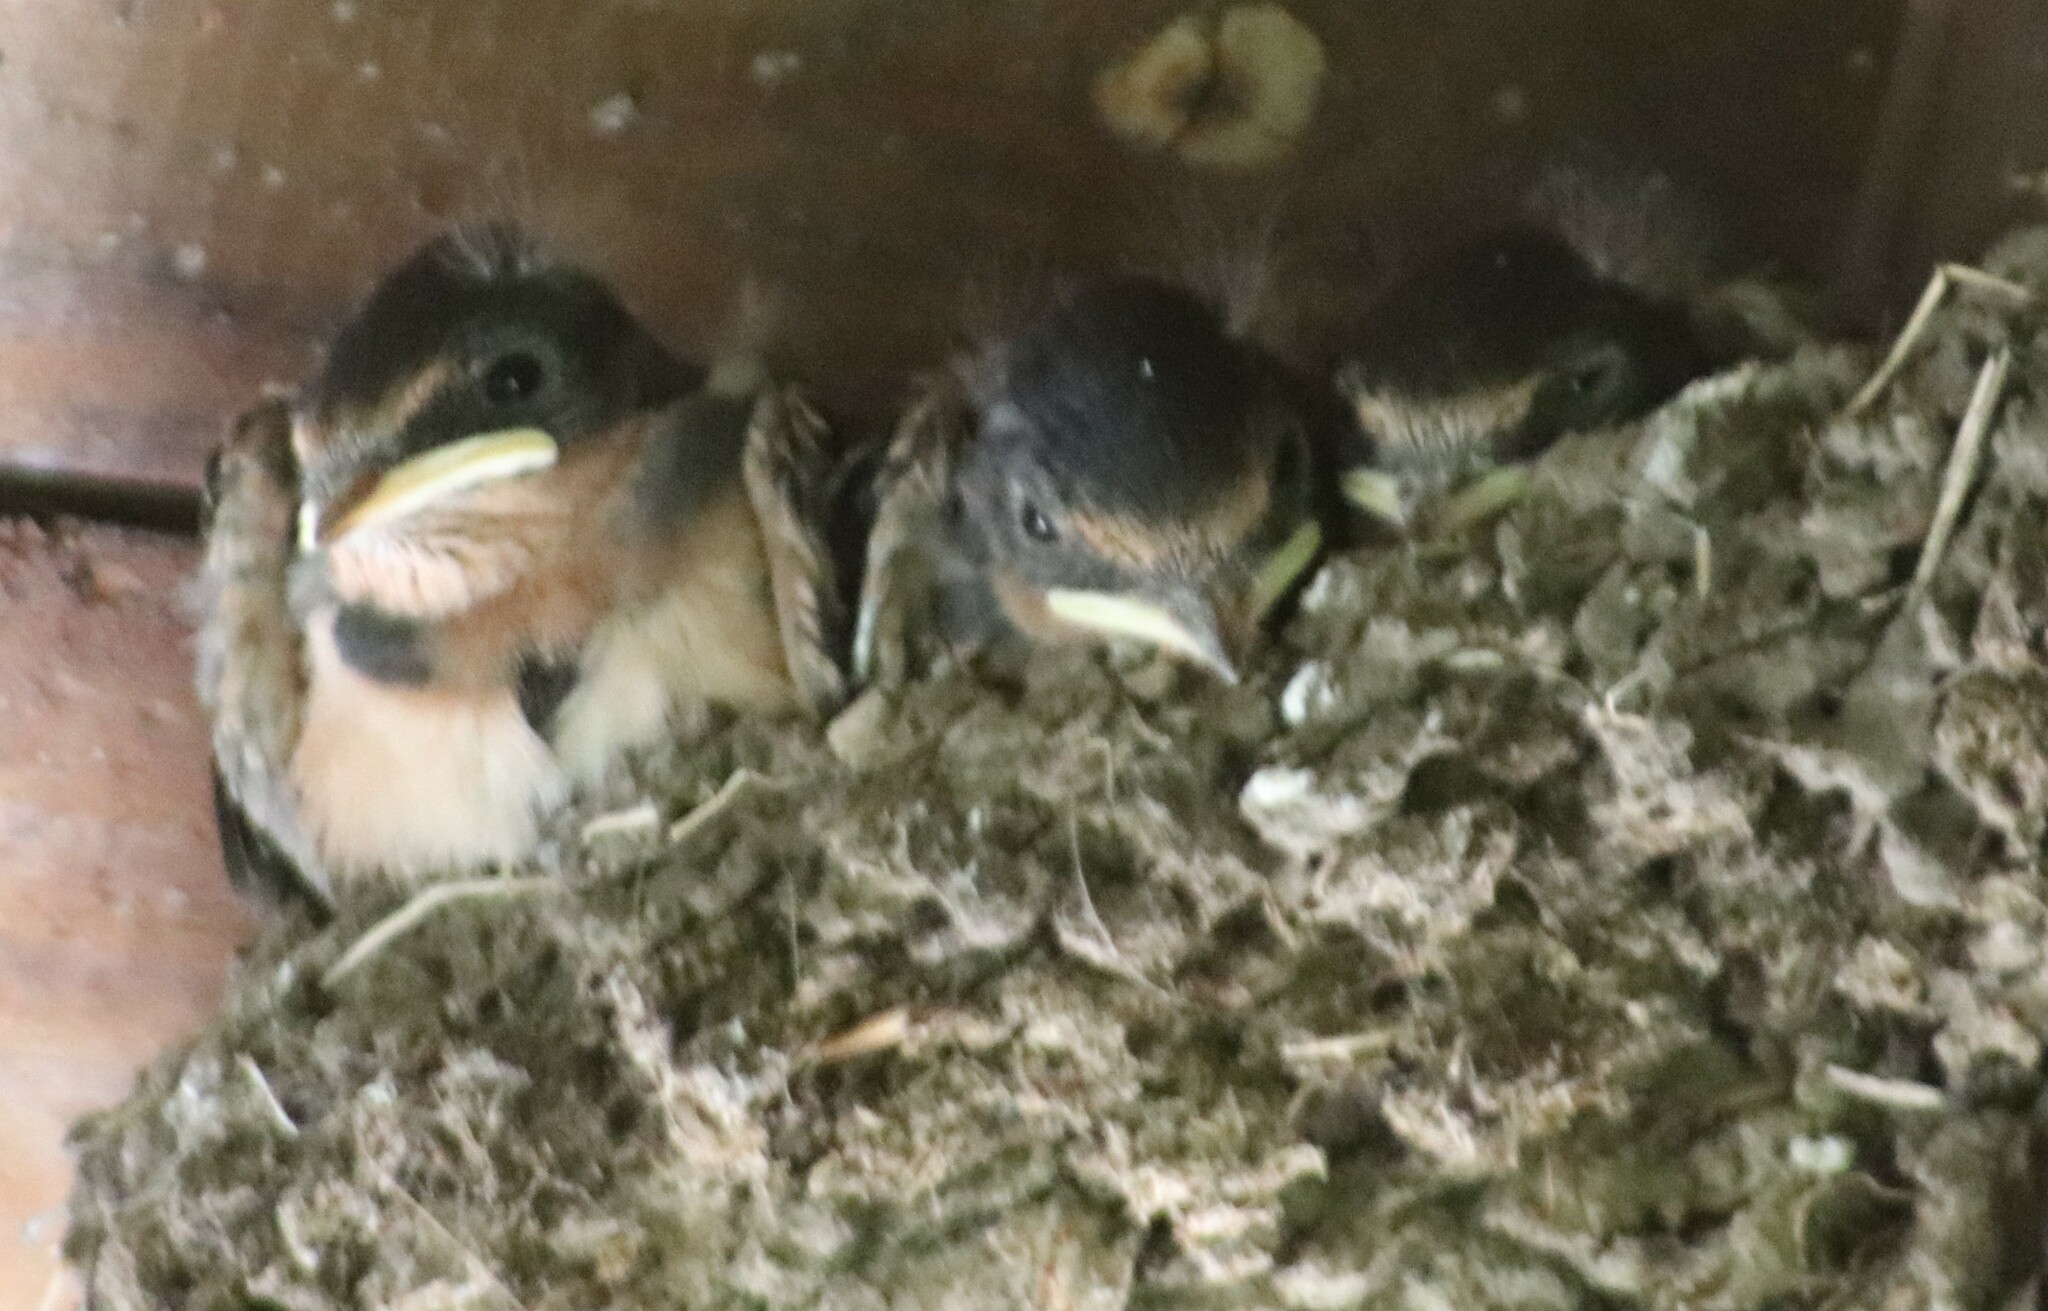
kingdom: Animalia
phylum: Chordata
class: Aves
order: Passeriformes
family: Hirundinidae
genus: Hirundo
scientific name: Hirundo rustica
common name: Barn swallow
